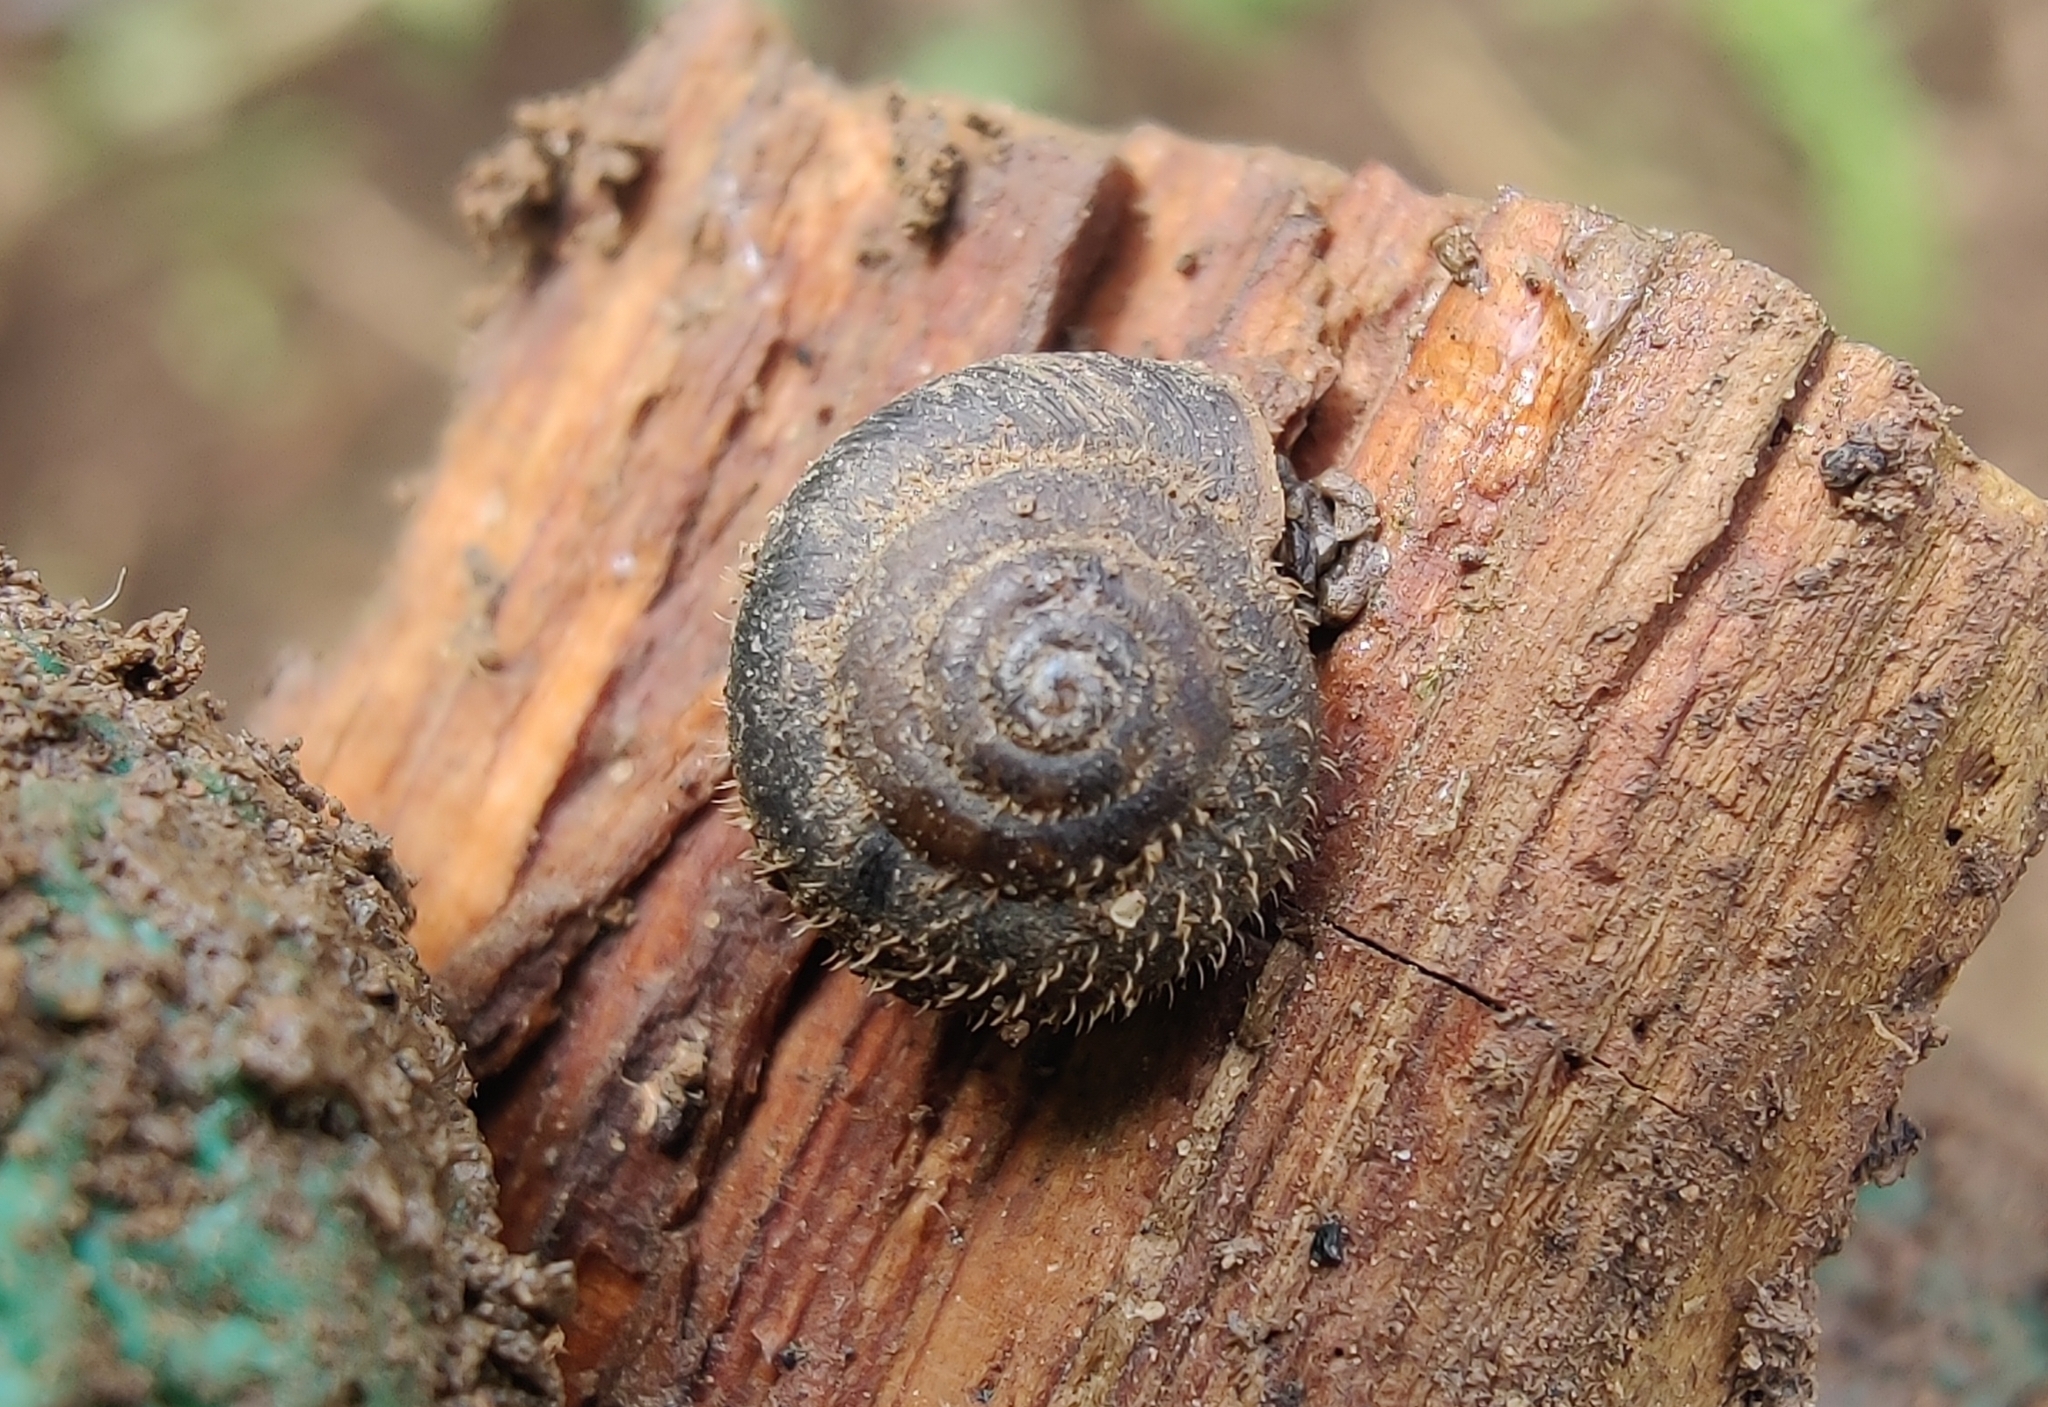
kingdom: Animalia
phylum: Mollusca
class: Gastropoda
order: Stylommatophora
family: Hygromiidae
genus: Trochulus
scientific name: Trochulus hispidus
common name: Hairy snail
